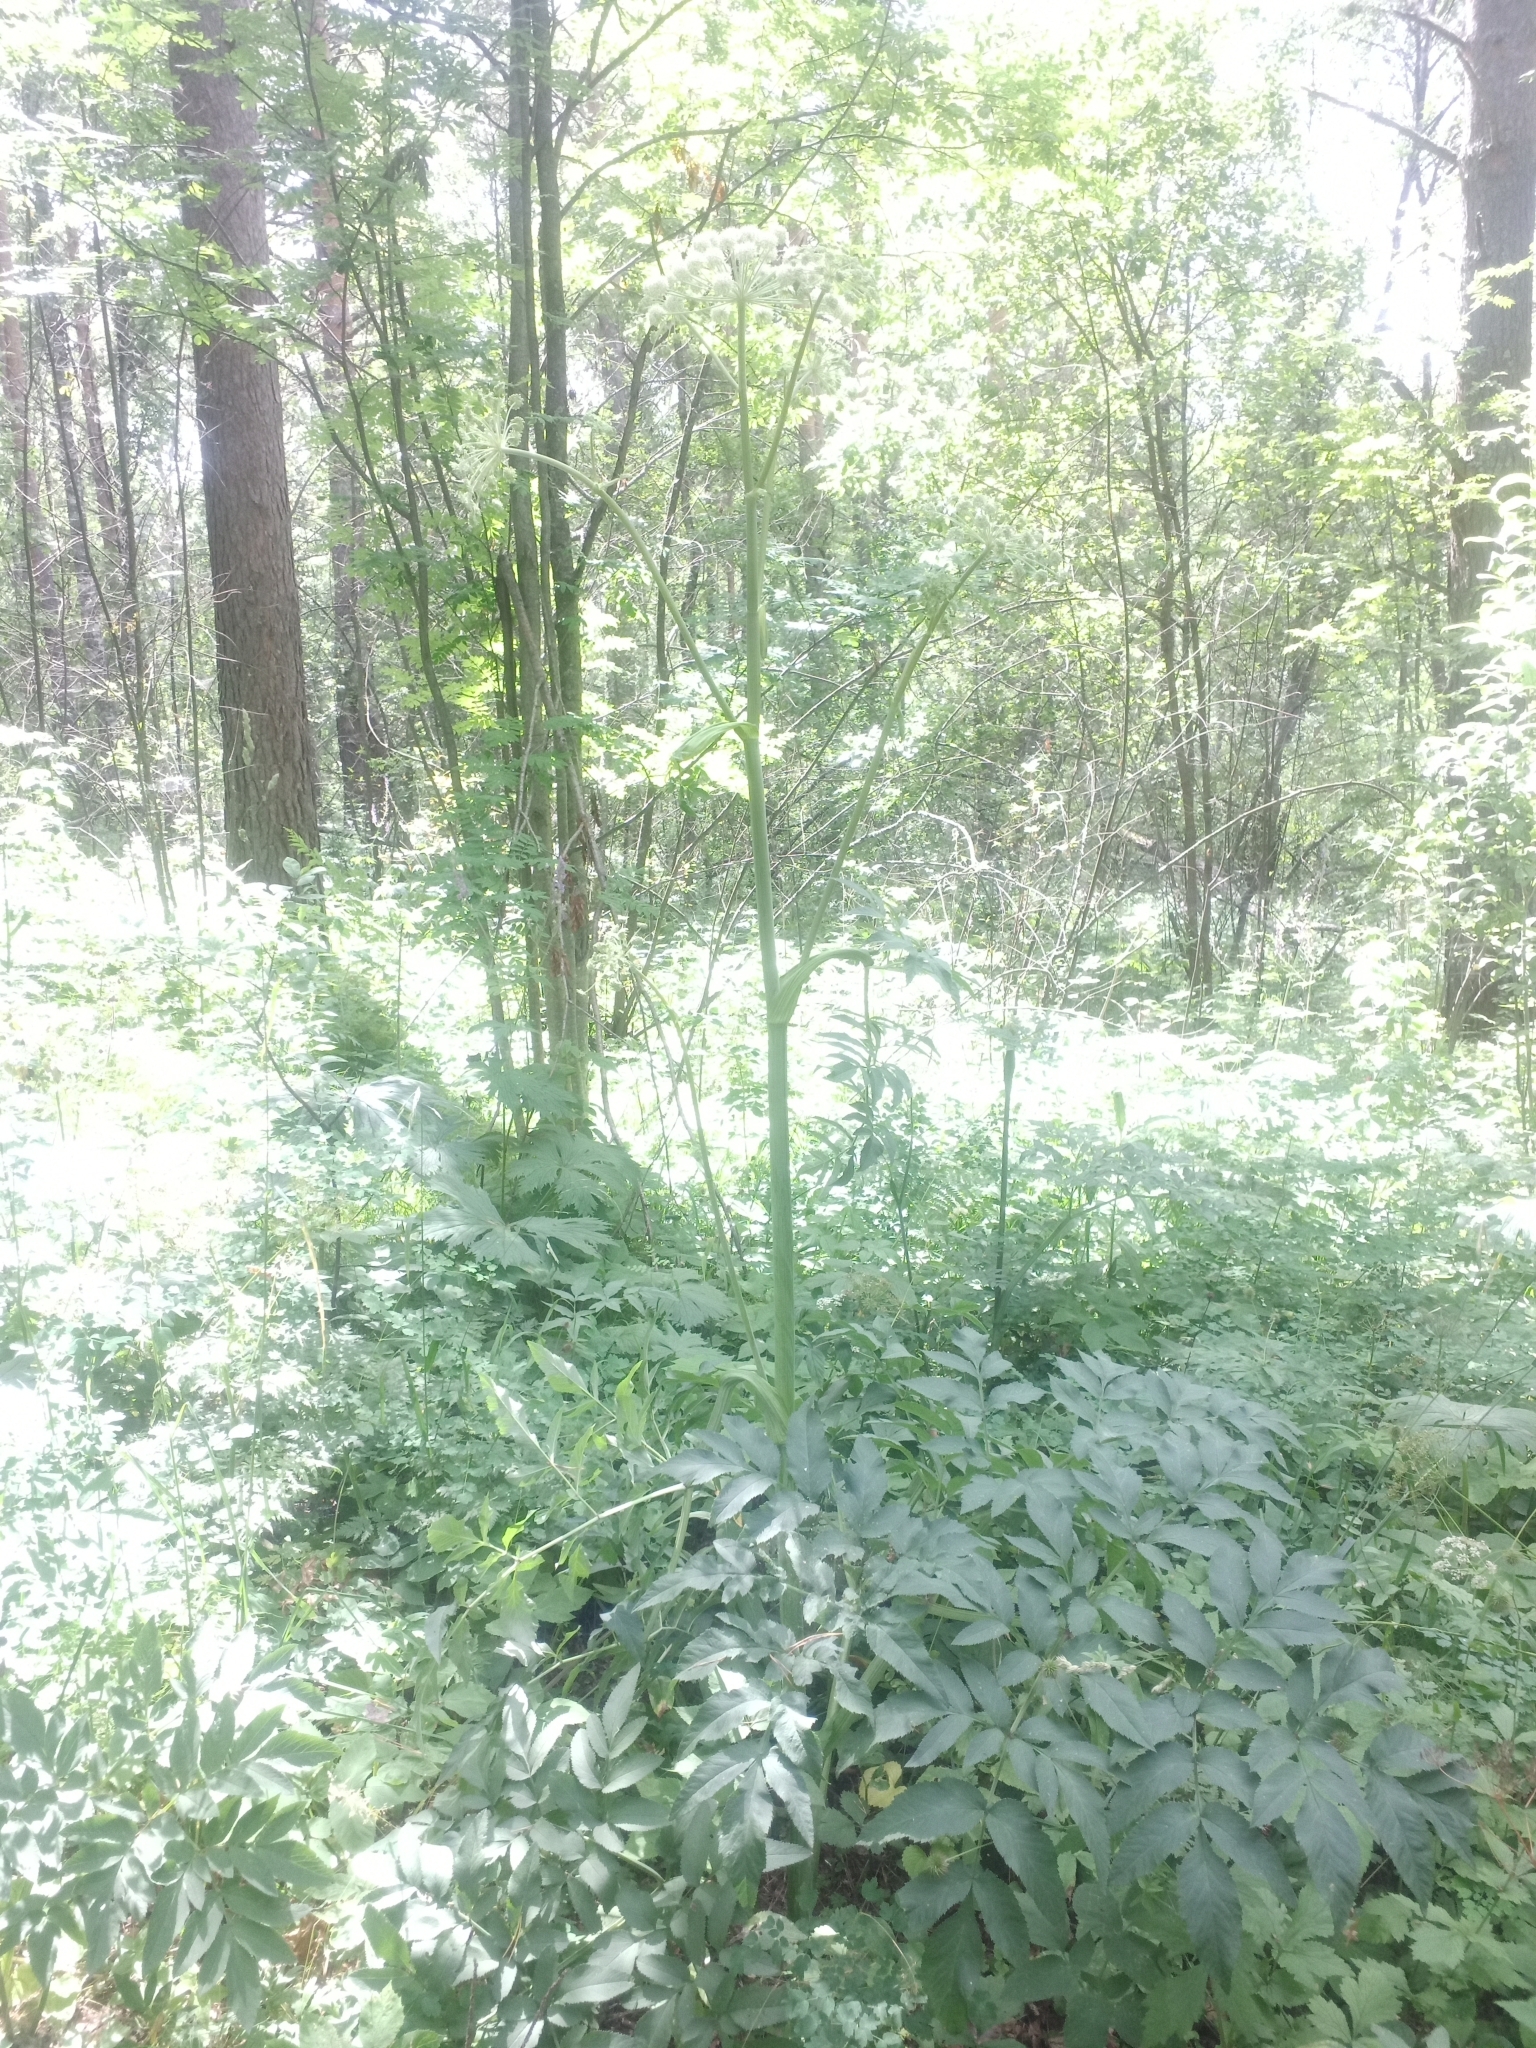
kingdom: Plantae
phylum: Tracheophyta
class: Magnoliopsida
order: Apiales
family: Apiaceae
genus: Angelica
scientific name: Angelica sylvestris
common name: Wild angelica
